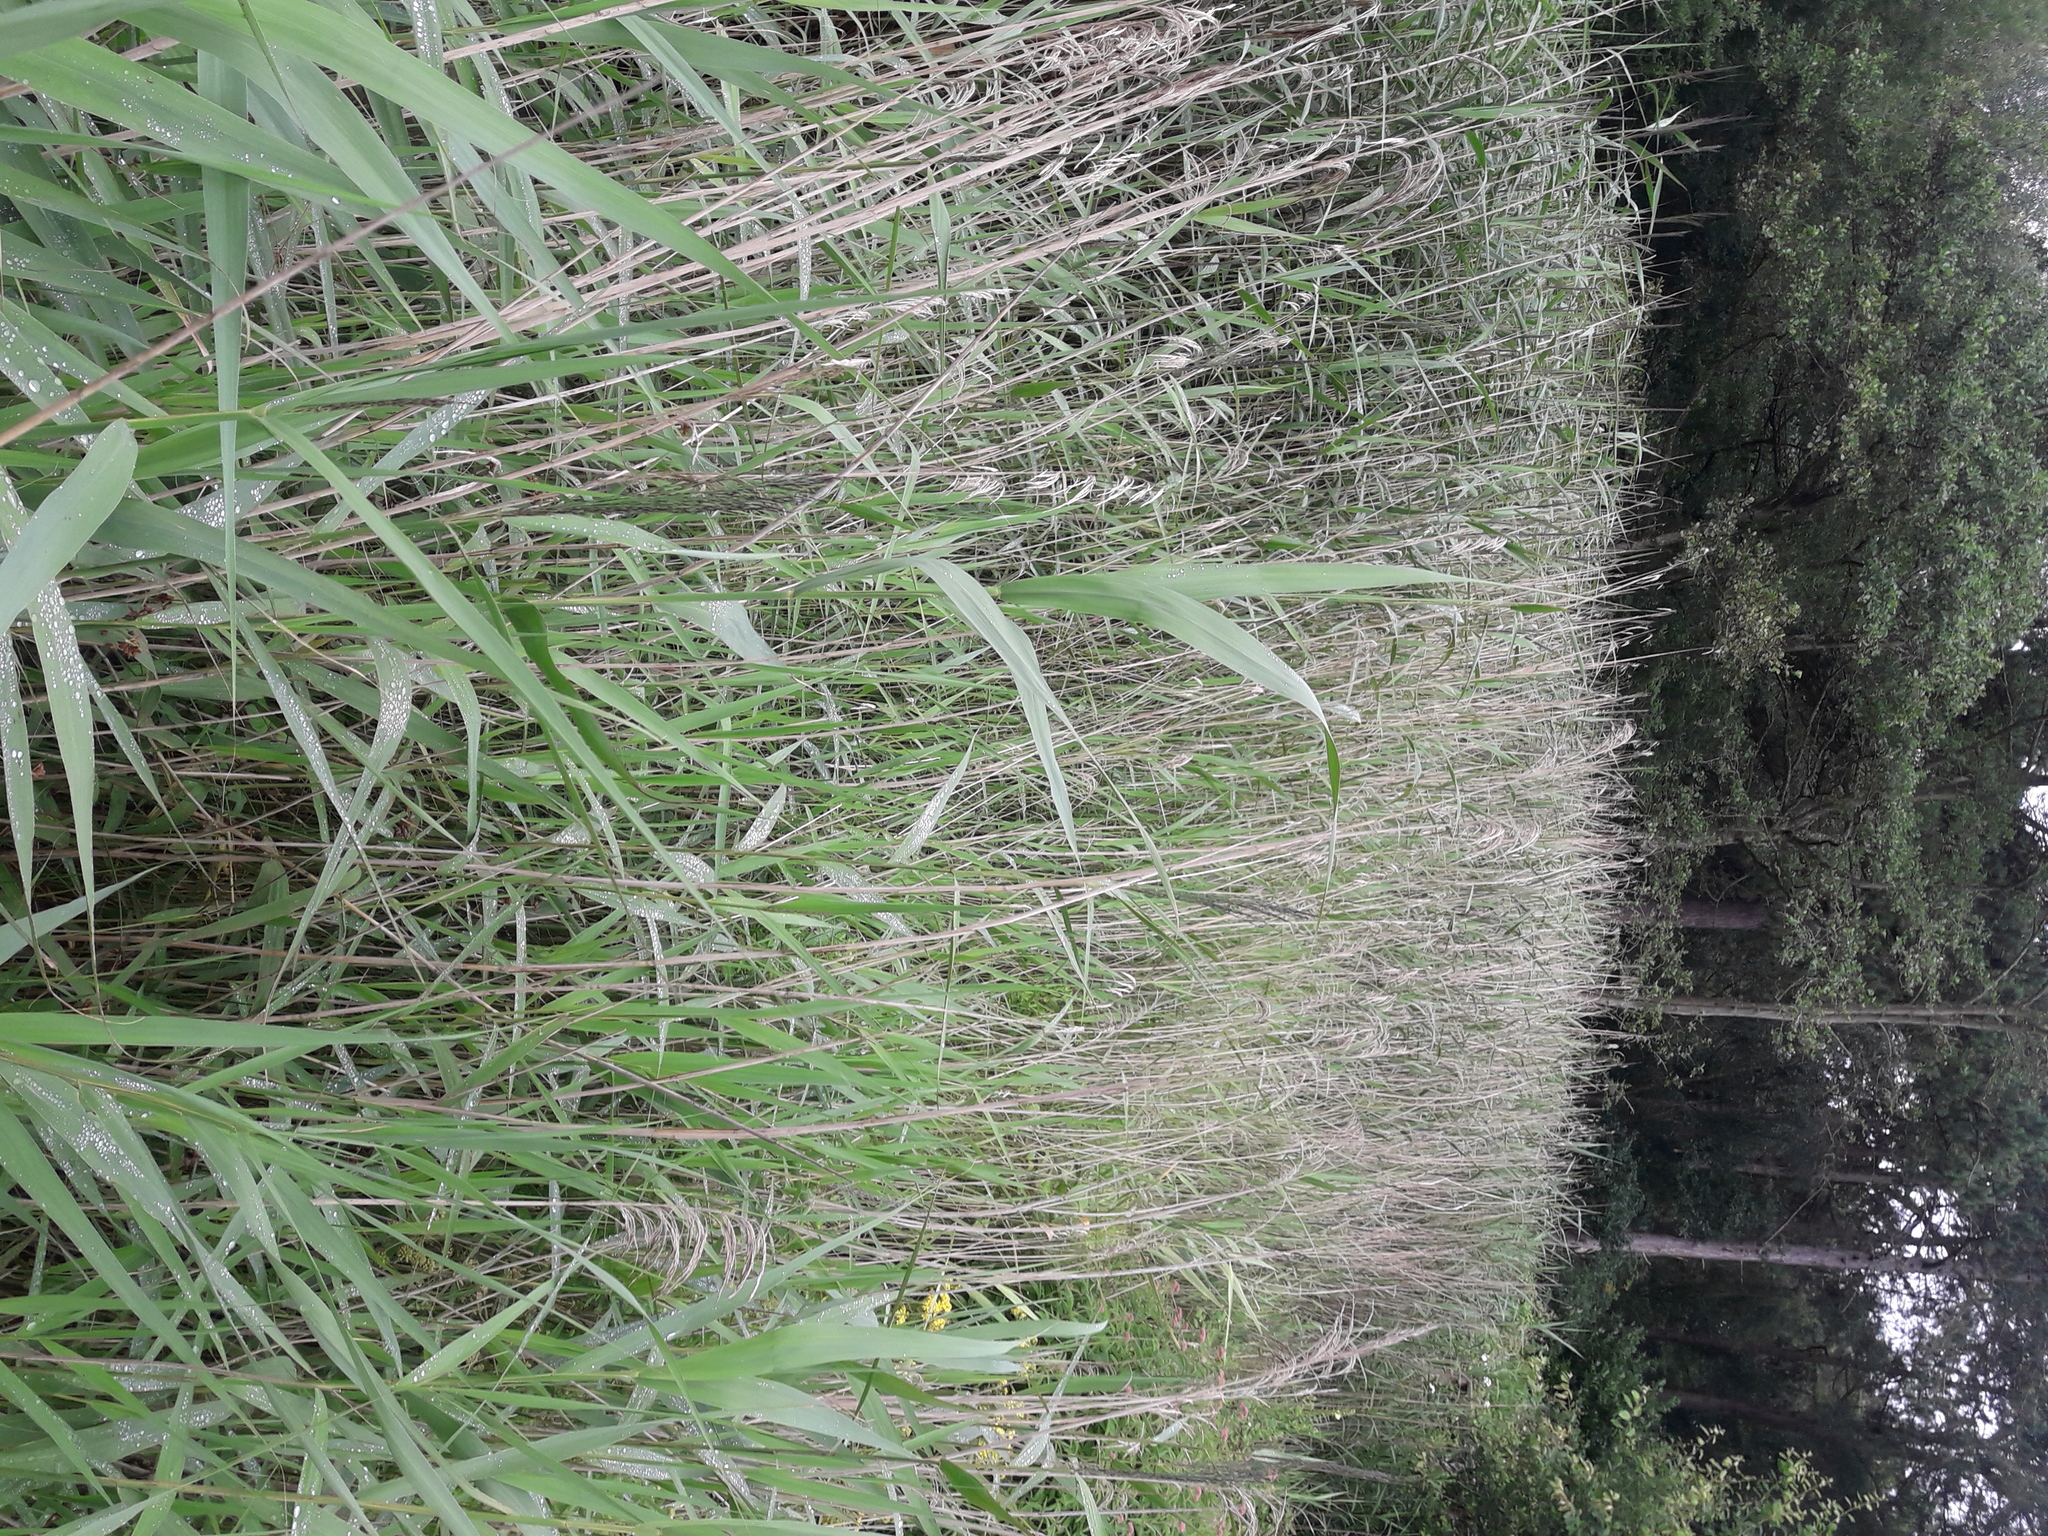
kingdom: Plantae
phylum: Tracheophyta
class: Magnoliopsida
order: Asterales
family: Asteraceae
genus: Eupatorium
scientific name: Eupatorium cannabinum
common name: Hemp-agrimony
